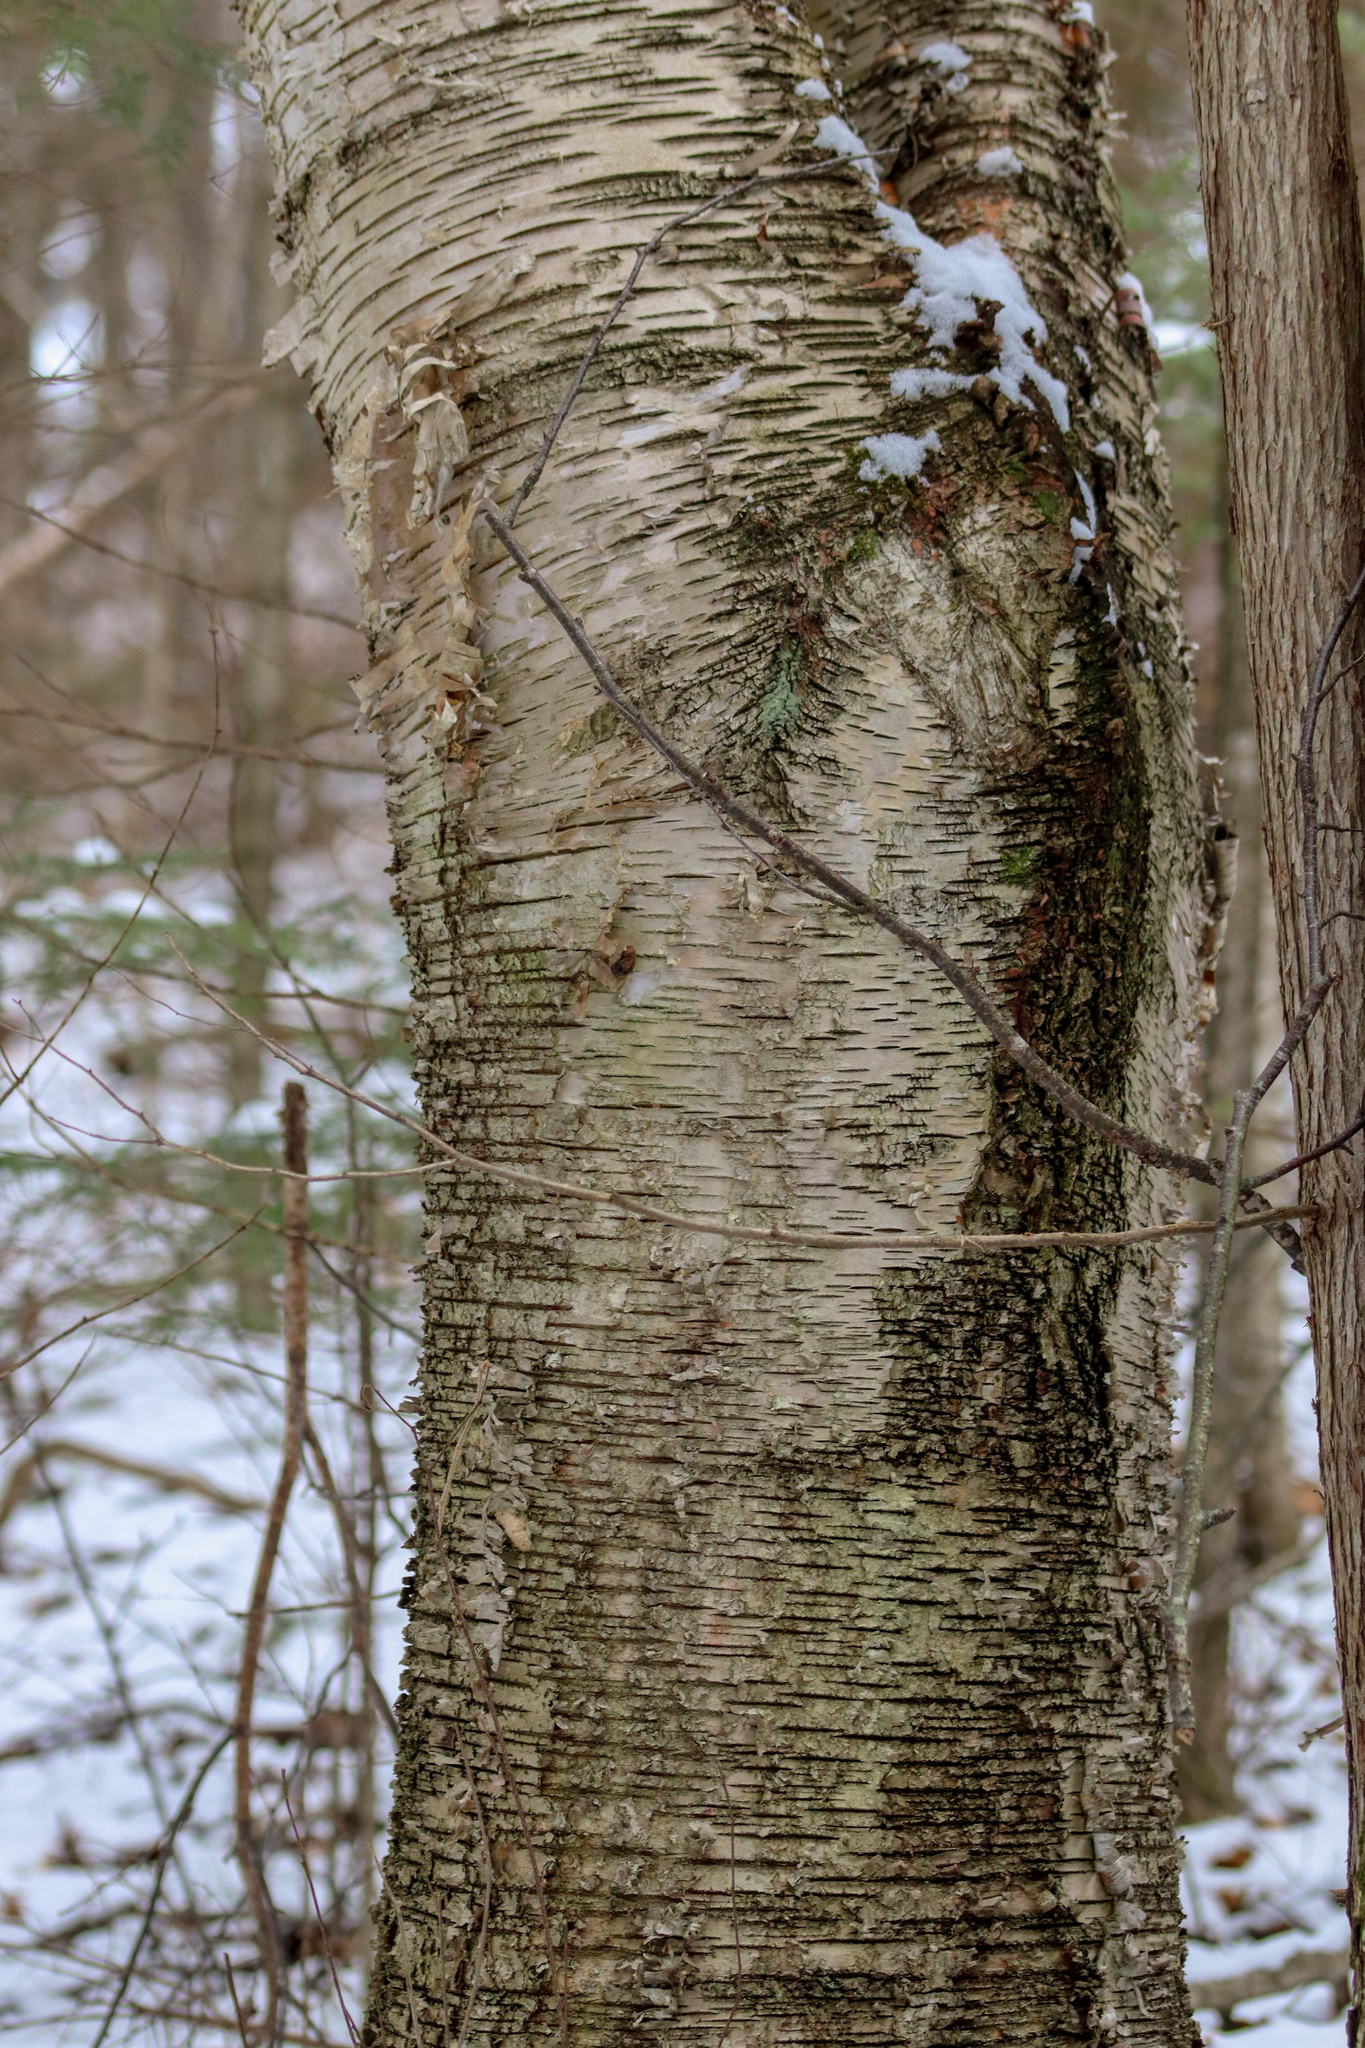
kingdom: Plantae
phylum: Tracheophyta
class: Magnoliopsida
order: Fagales
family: Betulaceae
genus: Betula
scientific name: Betula papyrifera
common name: Paper birch
